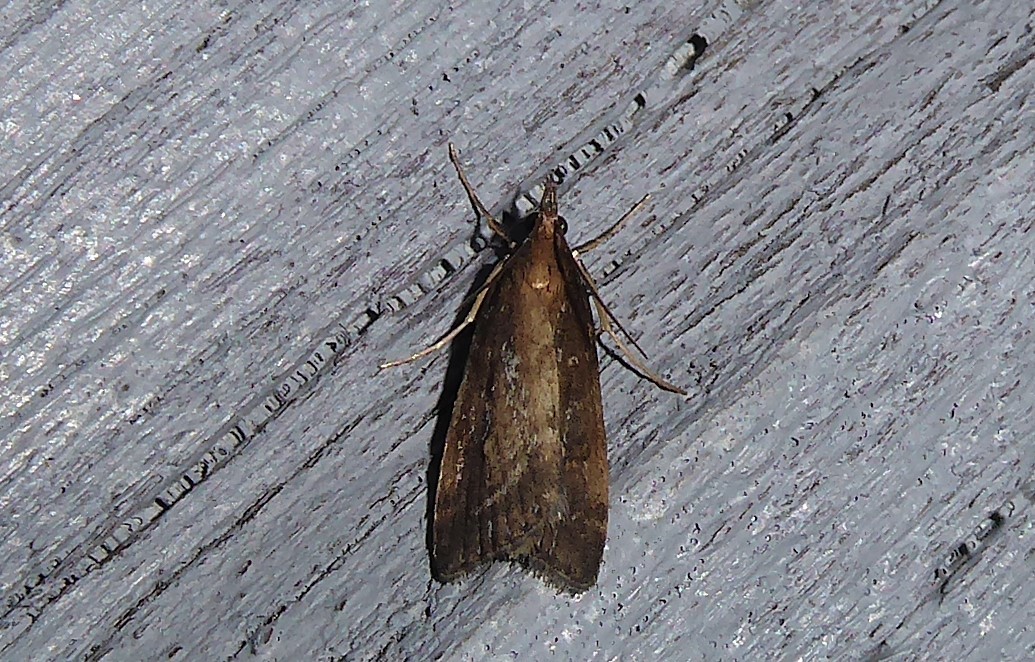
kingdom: Animalia
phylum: Arthropoda
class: Insecta
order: Lepidoptera
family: Crambidae
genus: Eudonia
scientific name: Eudonia octophora
